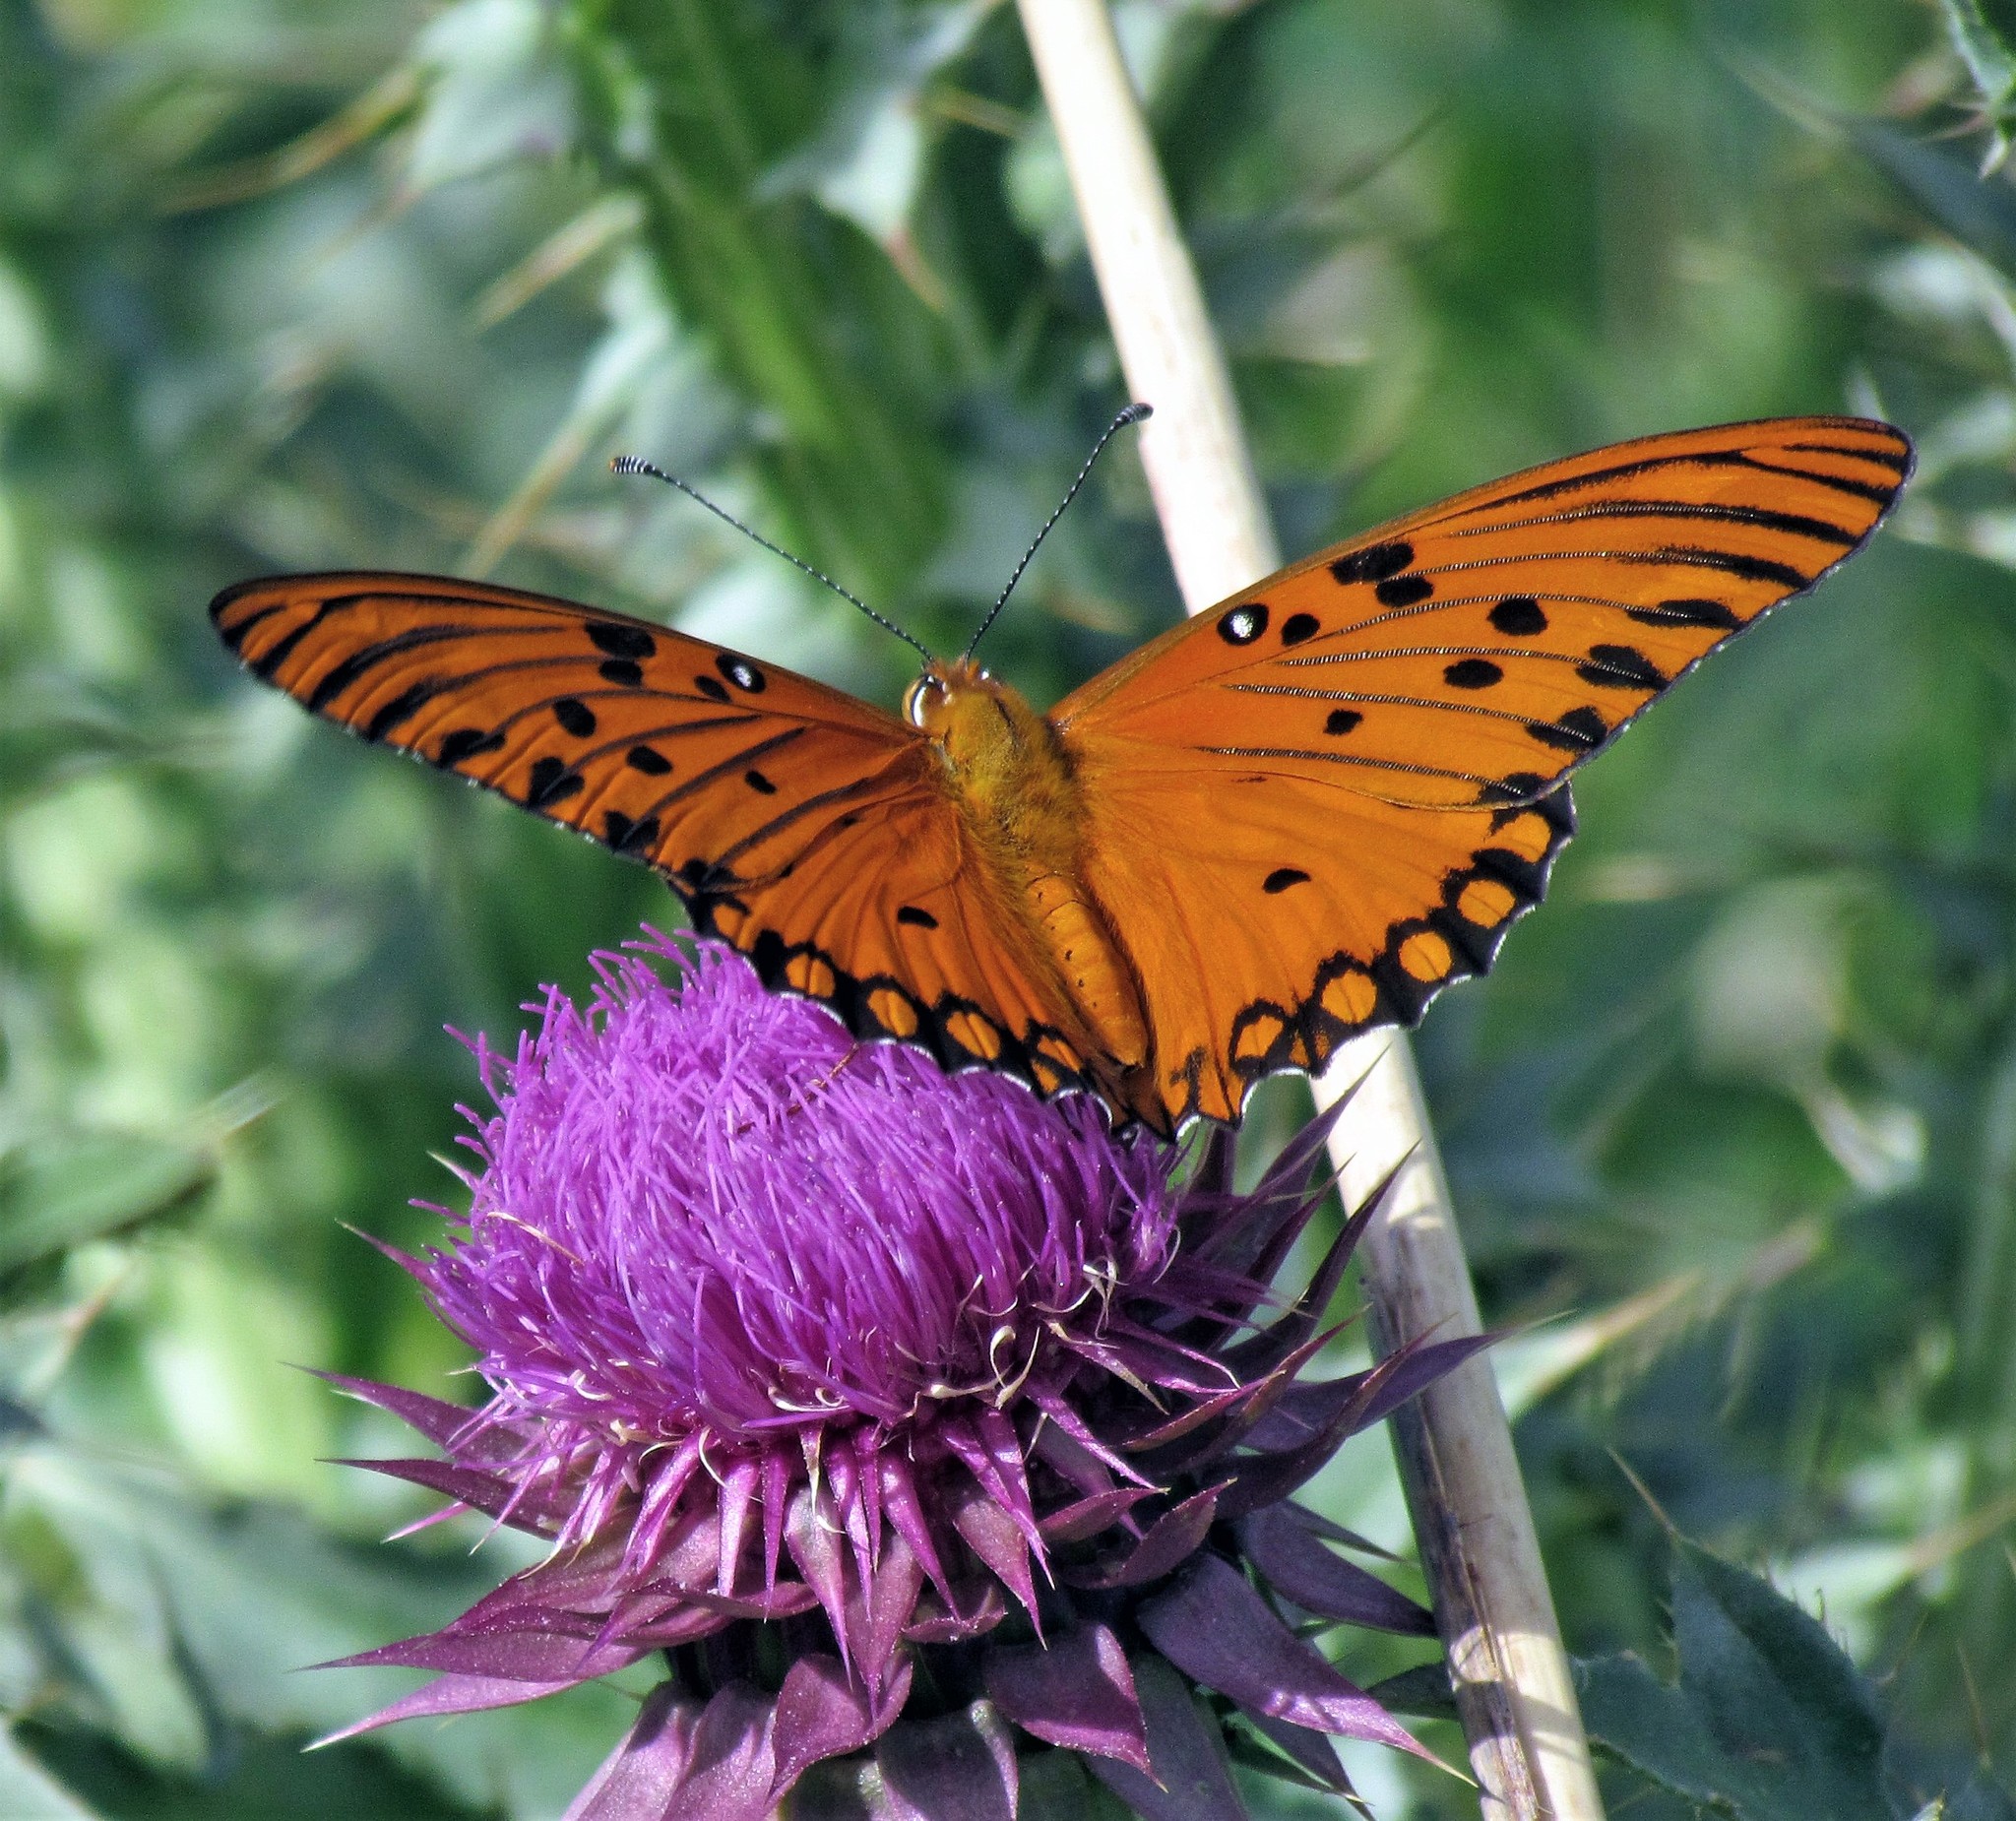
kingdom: Animalia
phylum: Arthropoda
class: Insecta
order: Lepidoptera
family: Nymphalidae
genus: Dione
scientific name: Dione vanillae
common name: Gulf fritillary
